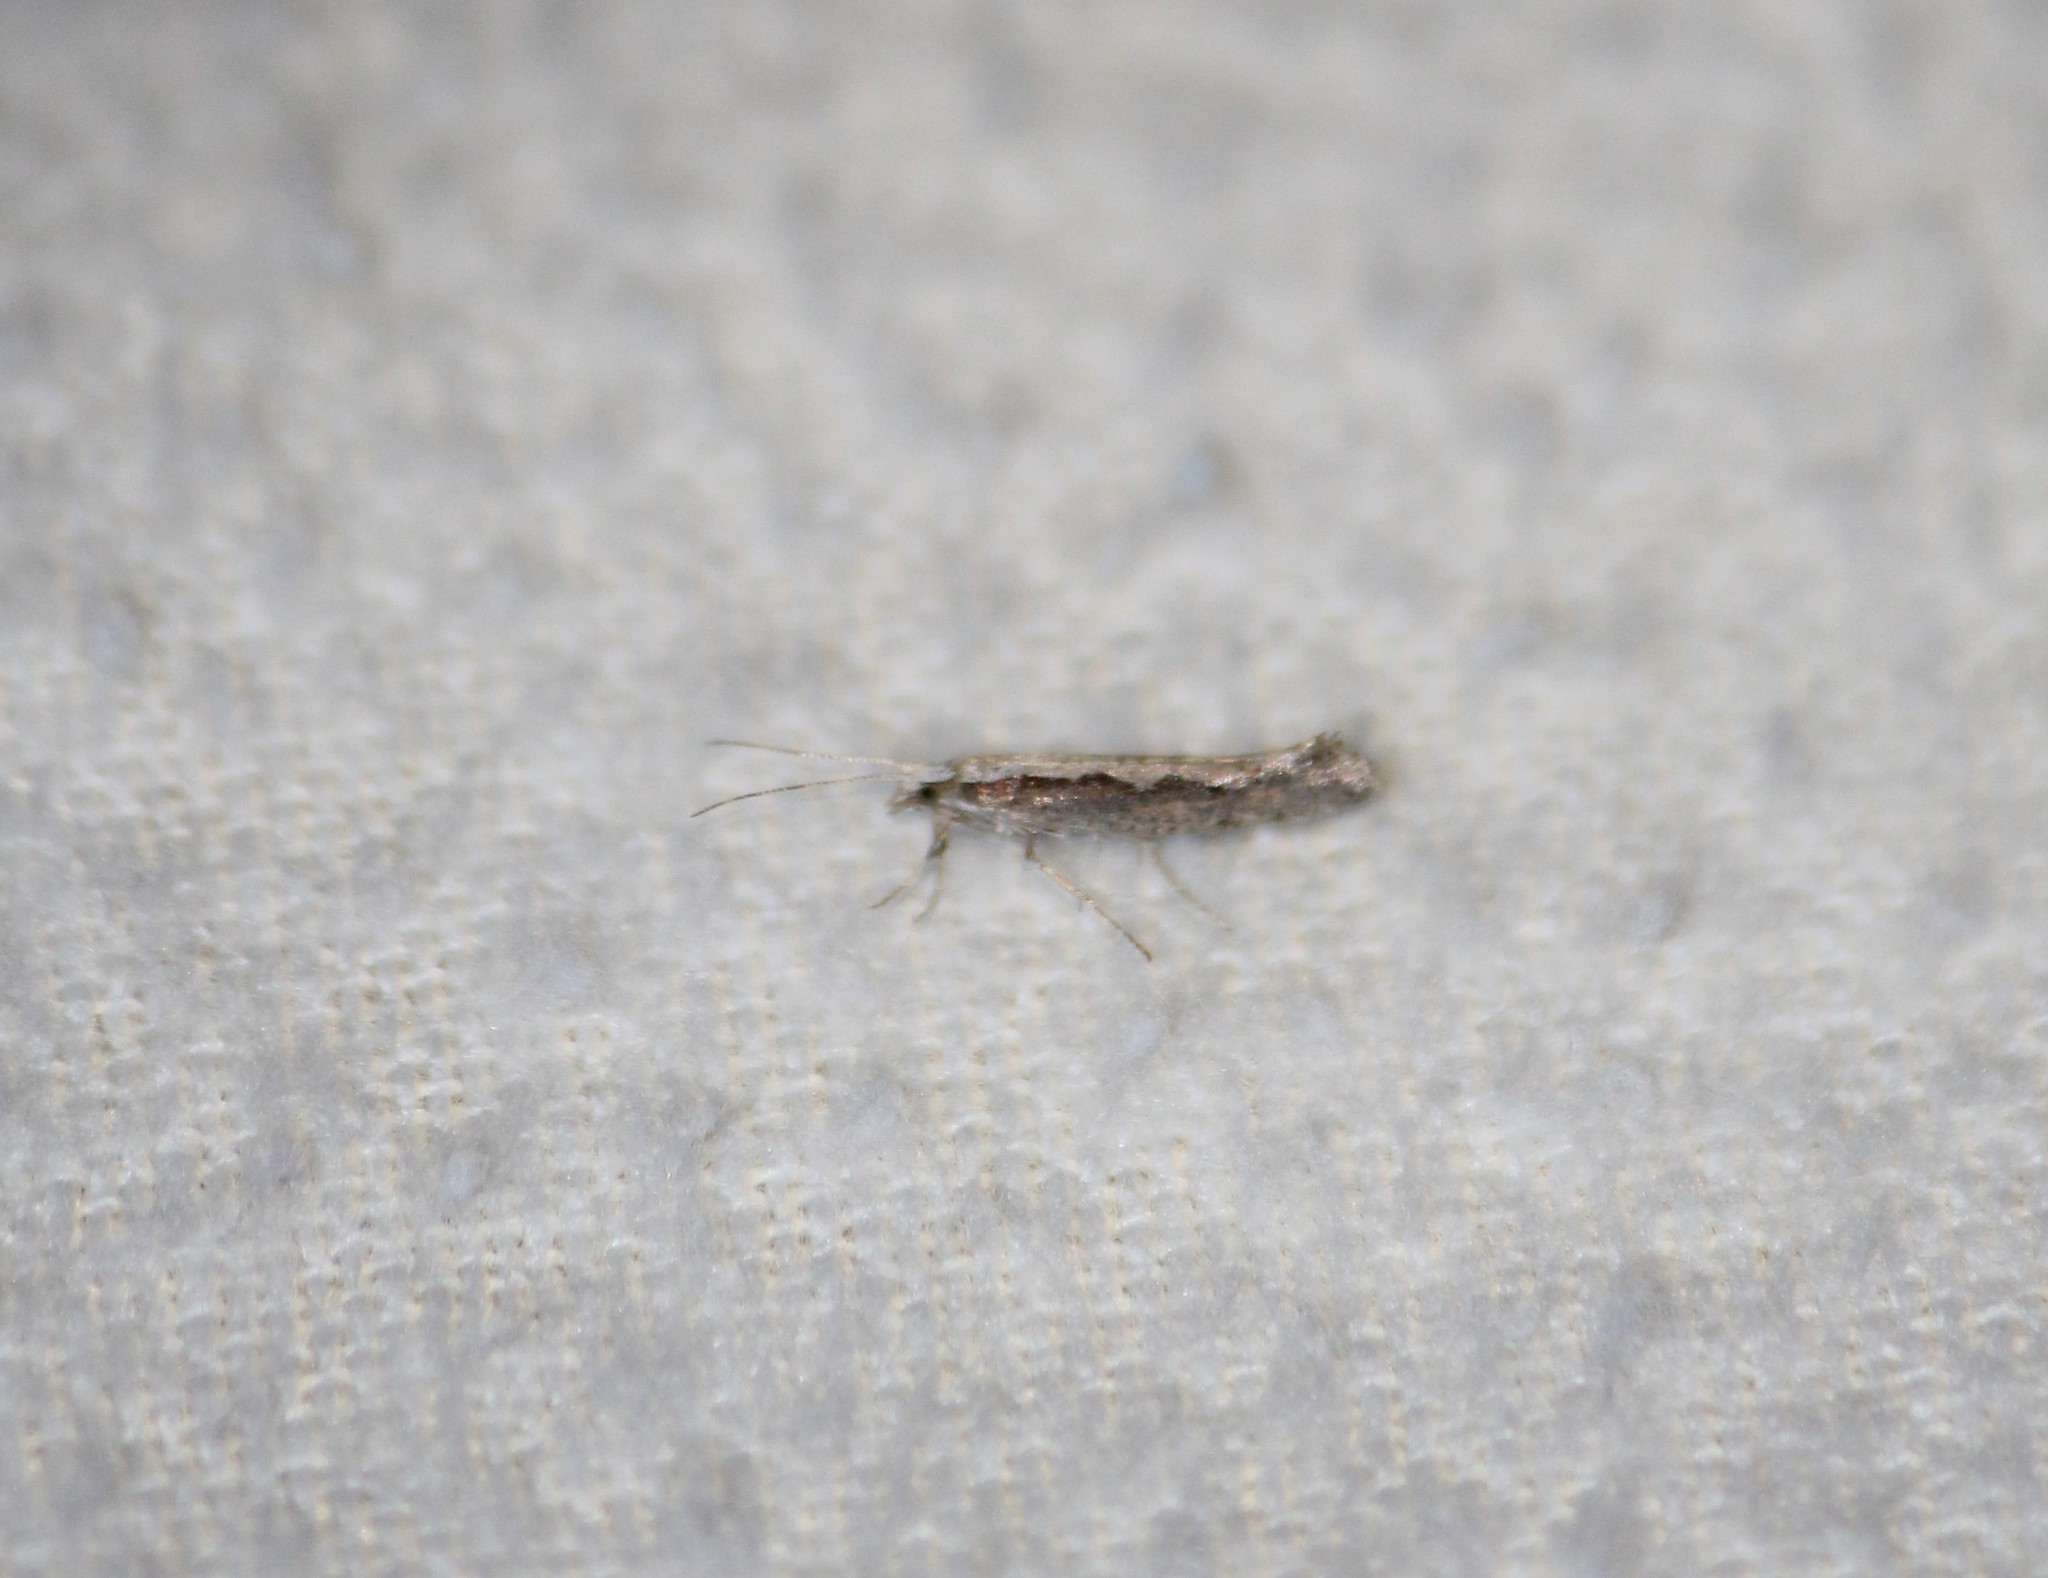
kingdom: Animalia
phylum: Arthropoda
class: Insecta
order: Lepidoptera
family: Plutellidae
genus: Plutella
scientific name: Plutella xylostella
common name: Diamond-back moth
